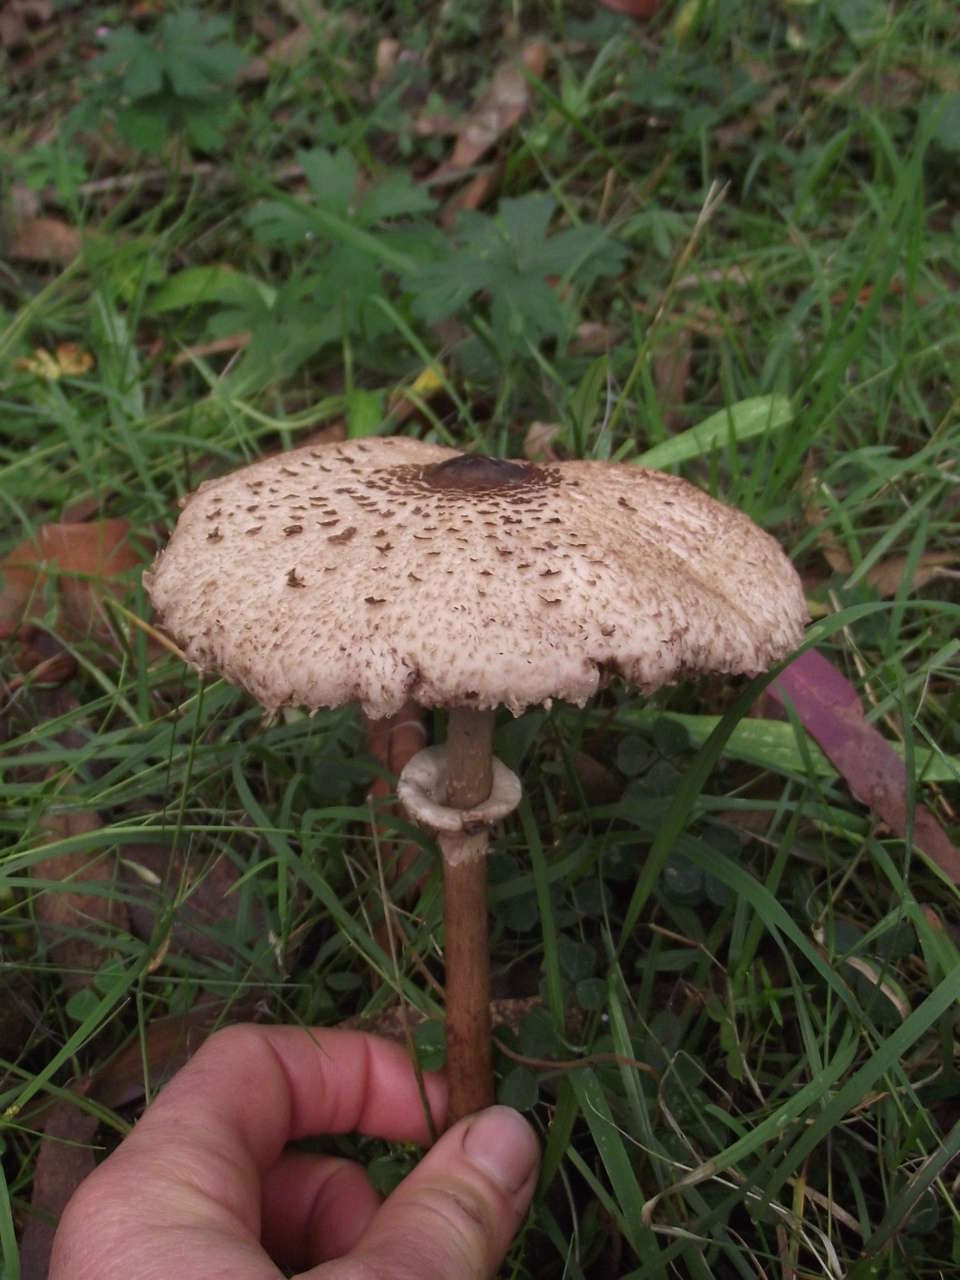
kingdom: Fungi
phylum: Basidiomycota
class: Agaricomycetes
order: Agaricales
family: Agaricaceae
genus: Macrolepiota
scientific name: Macrolepiota clelandii
